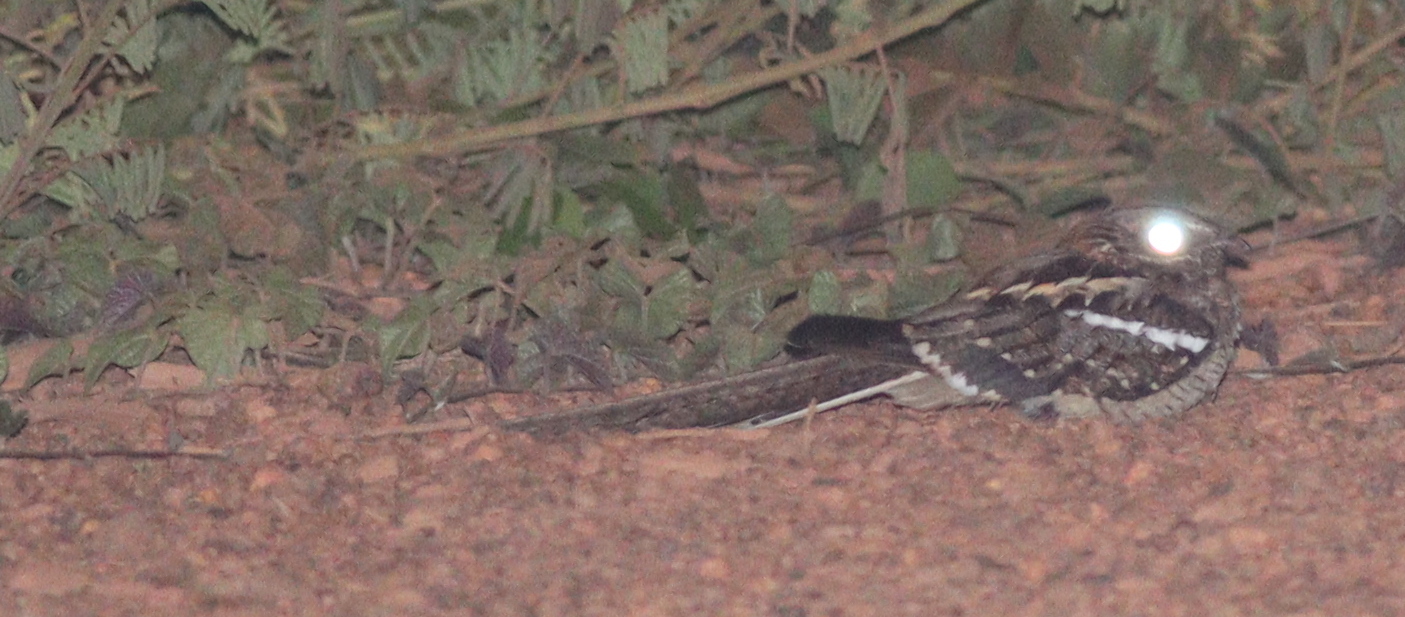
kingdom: Animalia
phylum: Chordata
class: Aves
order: Caprimulgiformes
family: Caprimulgidae
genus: Caprimulgus
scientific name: Caprimulgus climacurus
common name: Long-tailed nightjar
